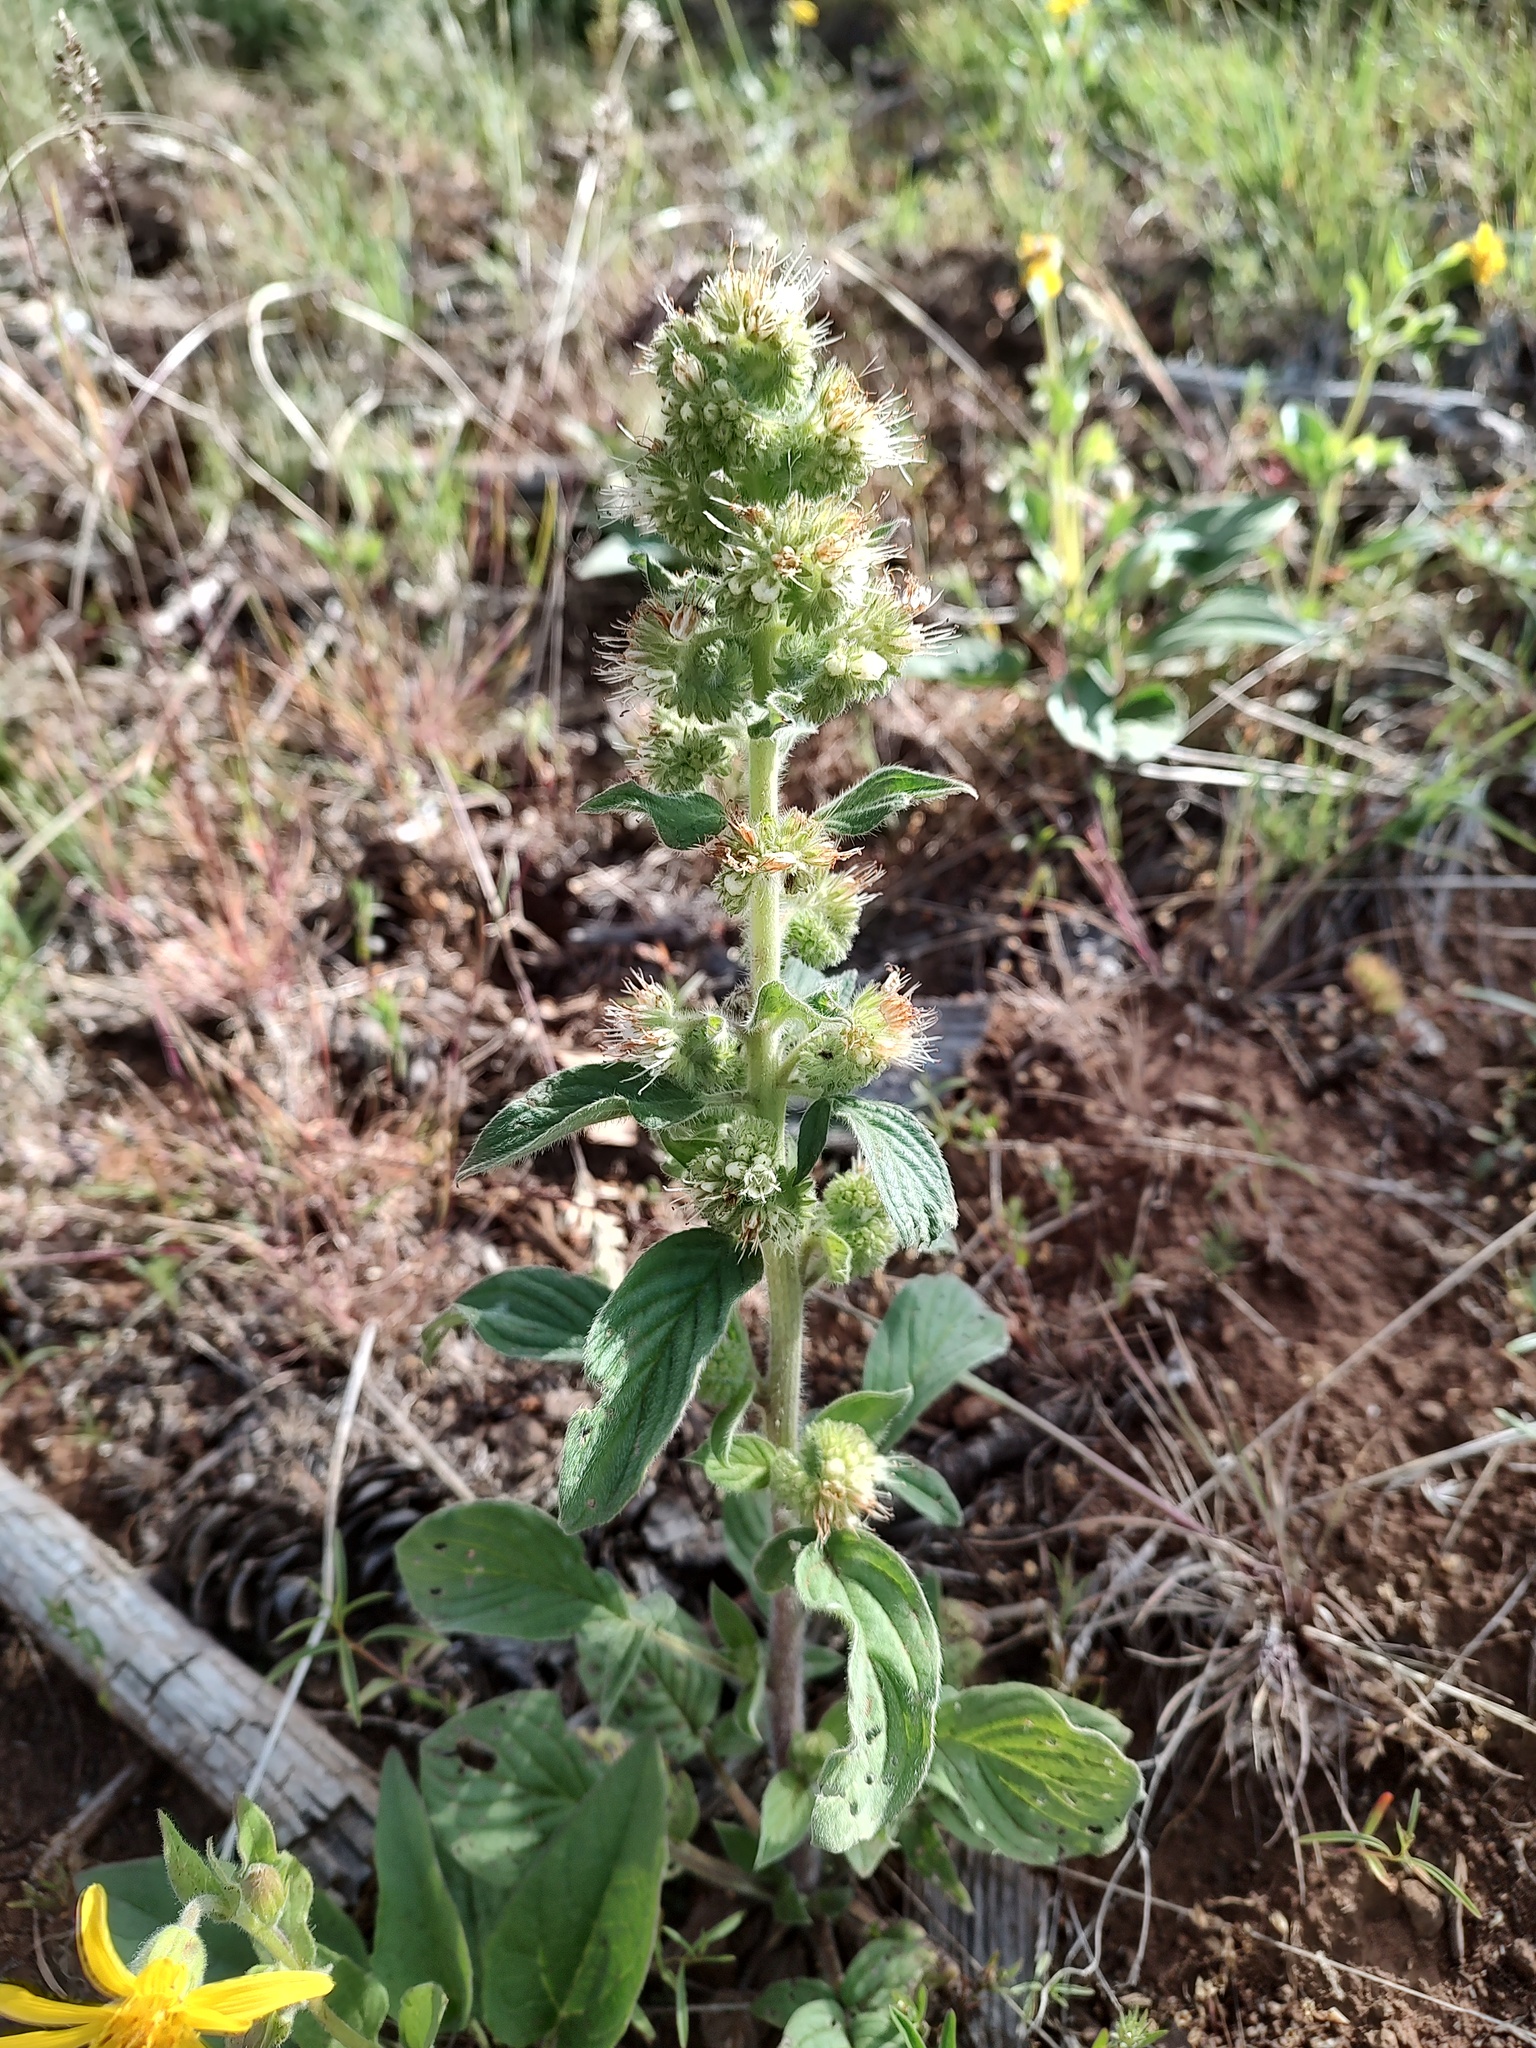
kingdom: Plantae
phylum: Tracheophyta
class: Magnoliopsida
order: Boraginales
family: Hydrophyllaceae
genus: Phacelia
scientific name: Phacelia heterophylla
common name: Variable-leaved phacelia
